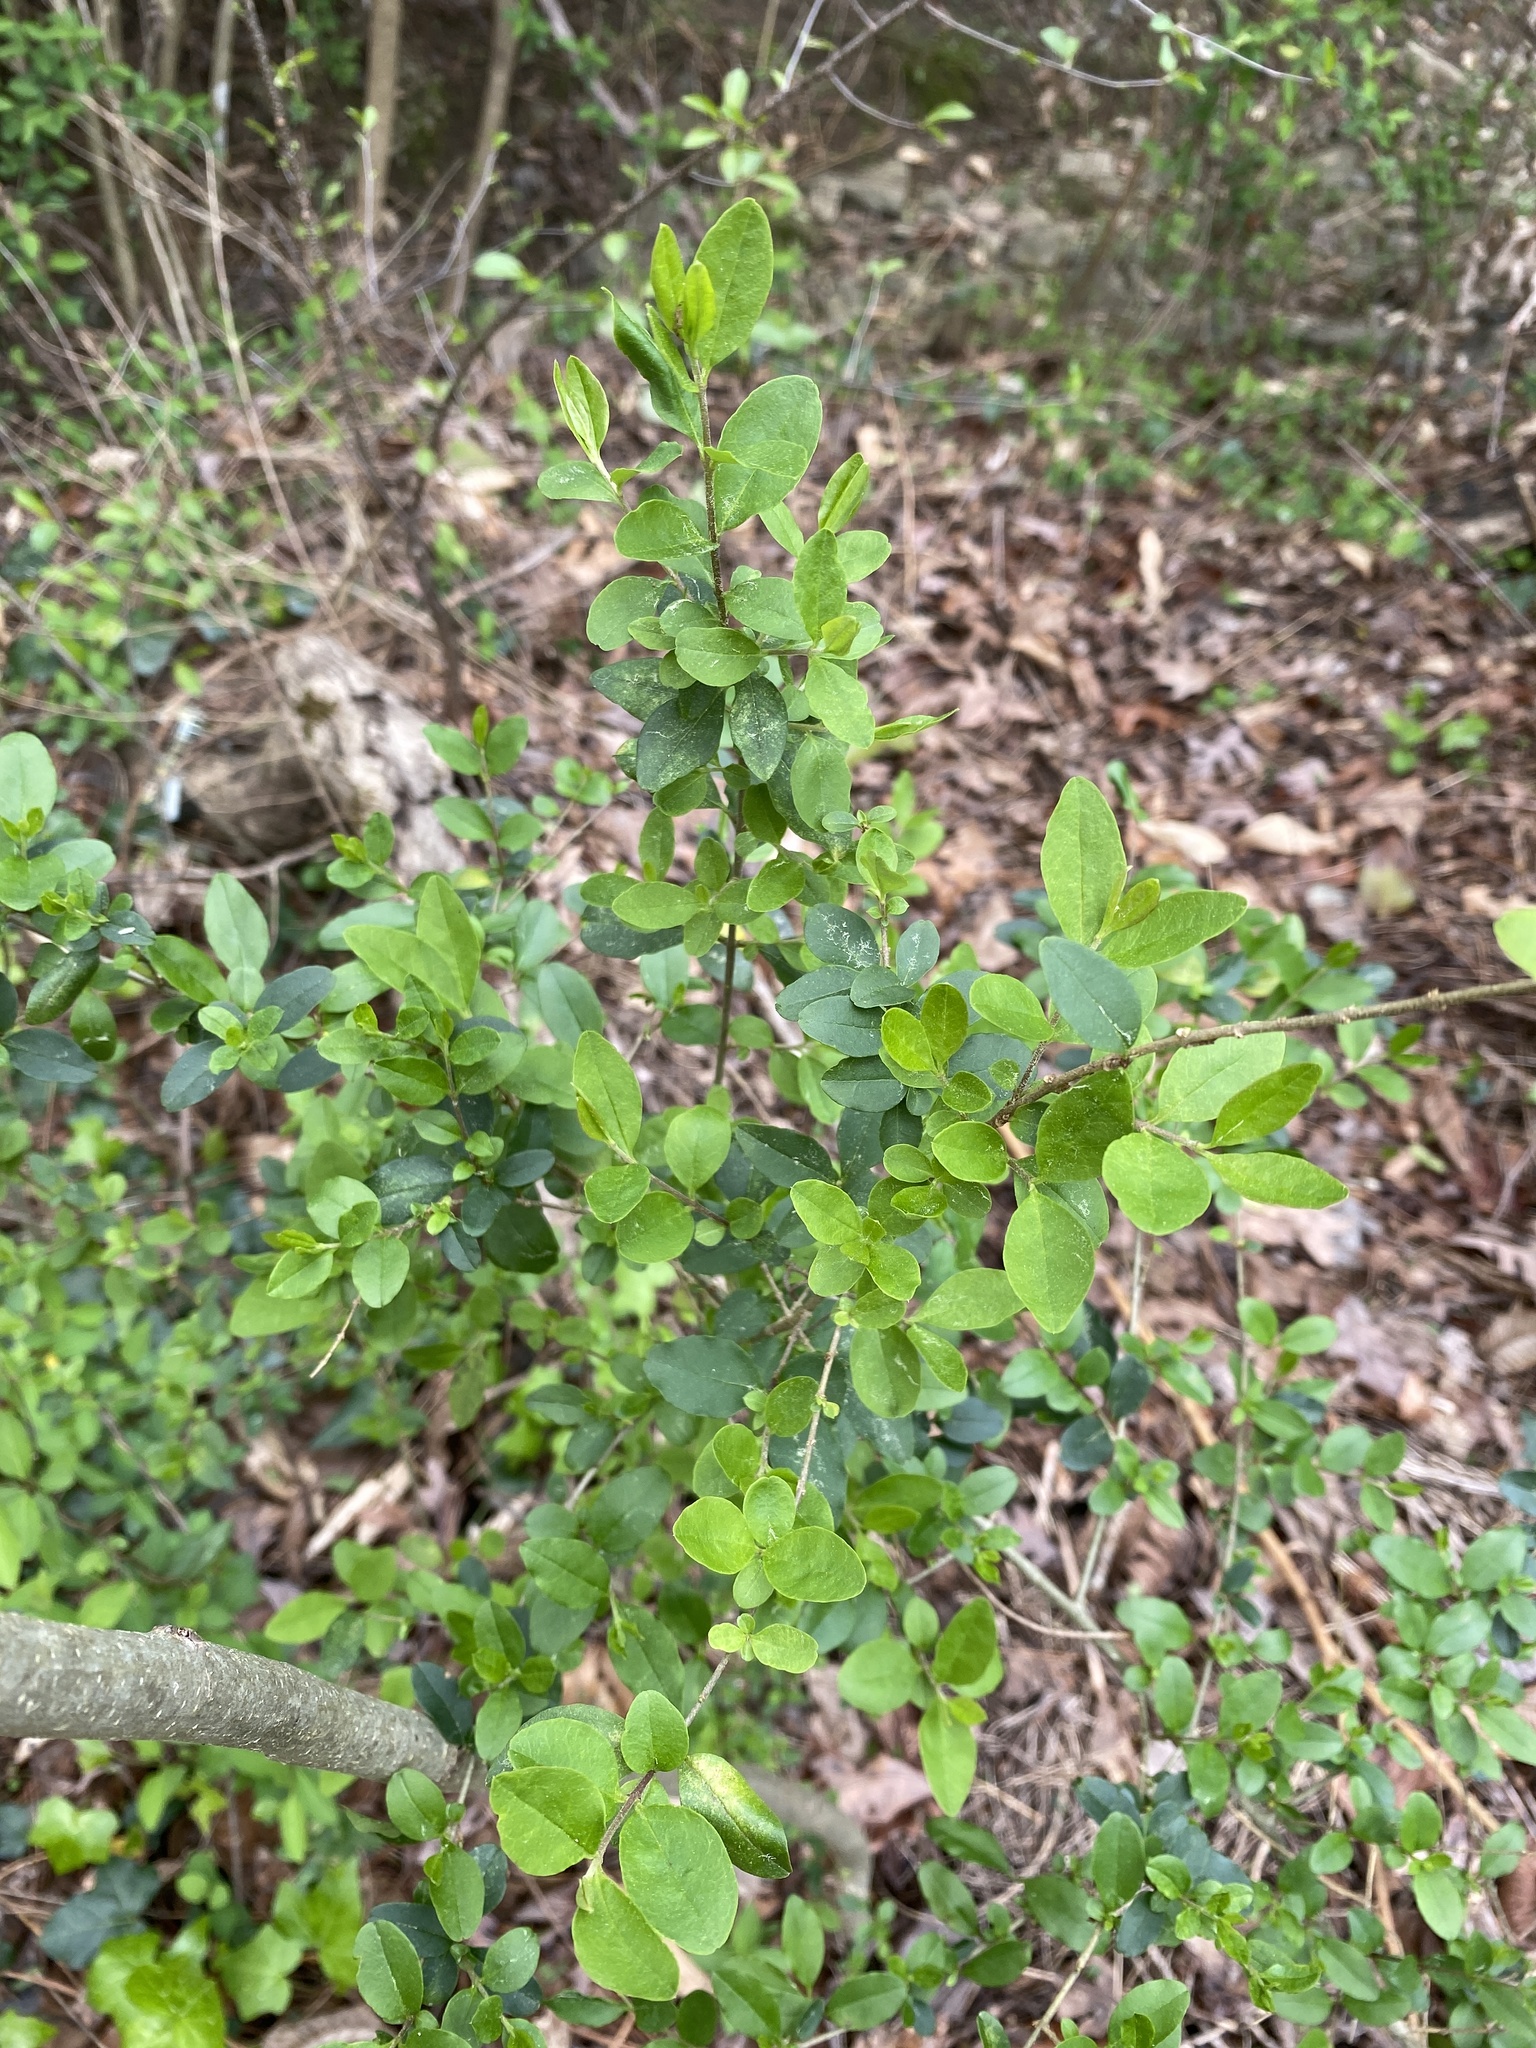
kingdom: Plantae
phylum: Tracheophyta
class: Magnoliopsida
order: Lamiales
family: Oleaceae
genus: Ligustrum
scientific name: Ligustrum sinense
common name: Chinese privet
